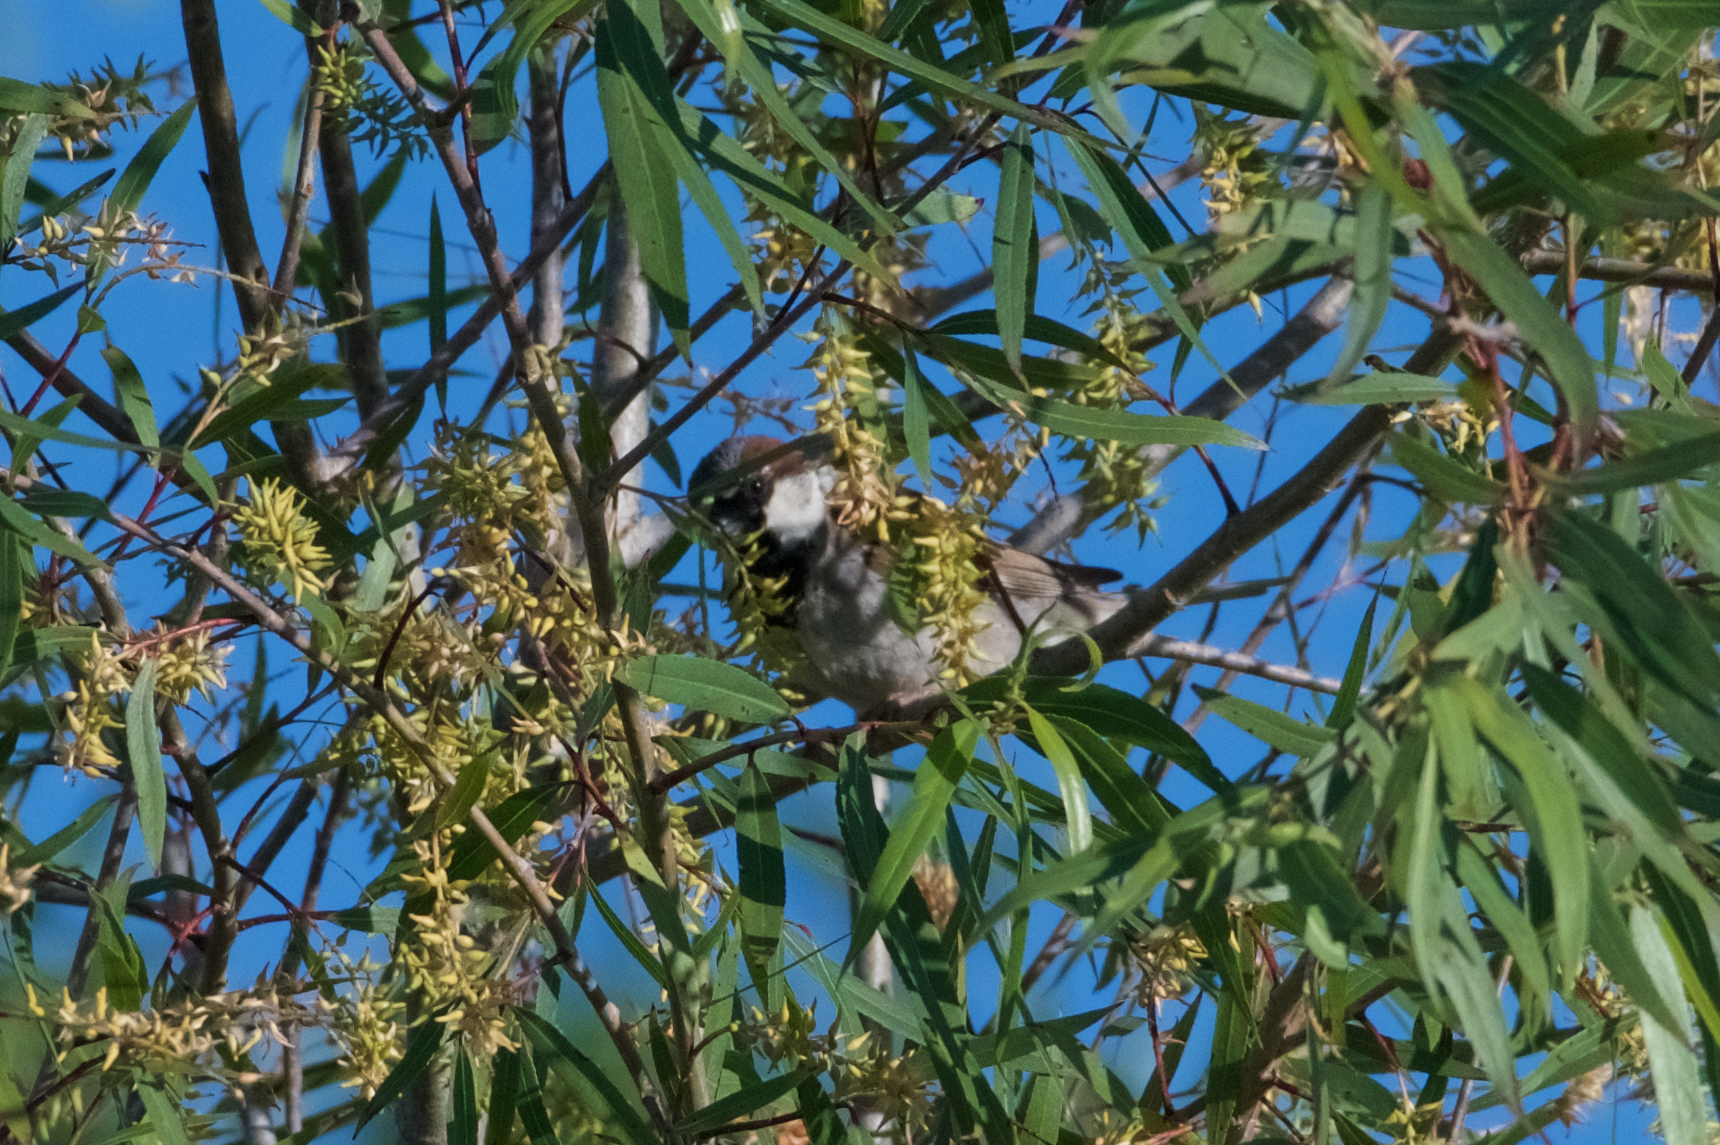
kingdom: Animalia
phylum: Chordata
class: Aves
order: Passeriformes
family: Passeridae
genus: Passer
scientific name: Passer domesticus
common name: House sparrow
